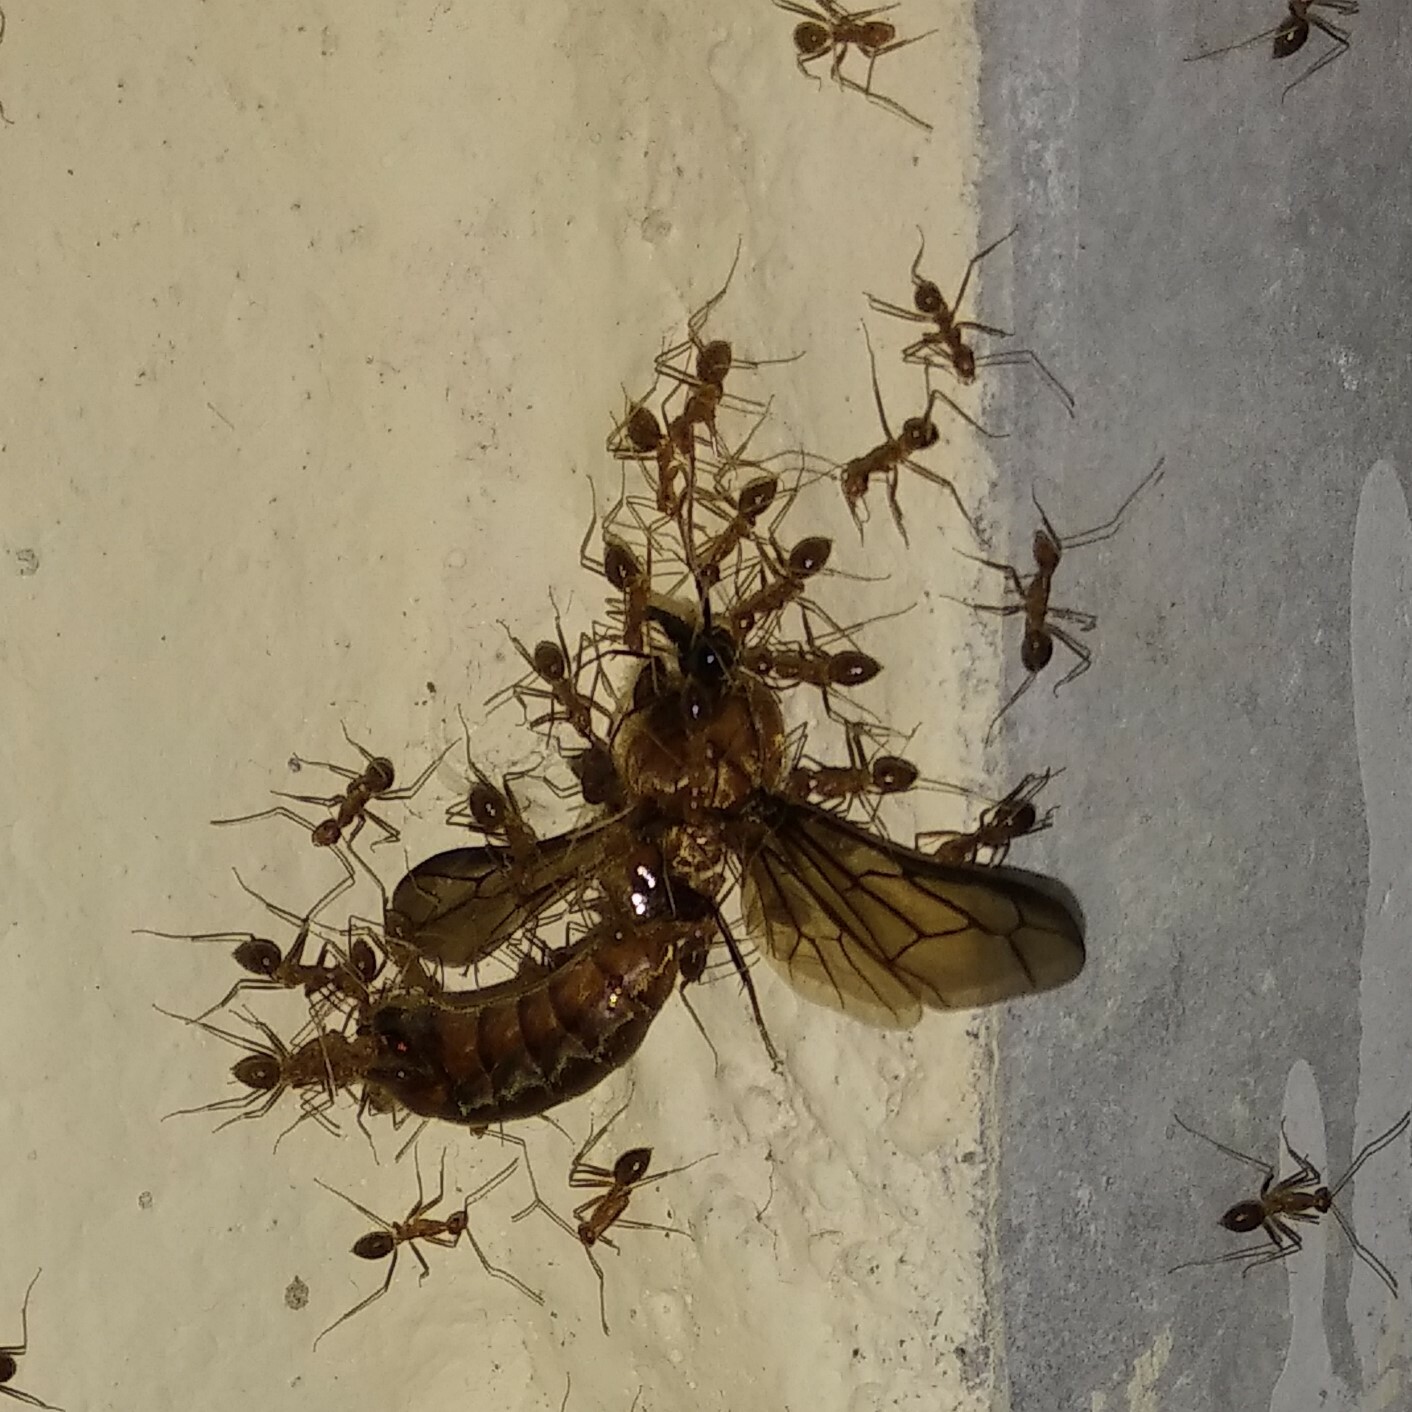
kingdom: Animalia
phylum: Arthropoda
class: Insecta
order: Hymenoptera
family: Formicidae
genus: Anoplolepis
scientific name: Anoplolepis gracilipes
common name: Ant
